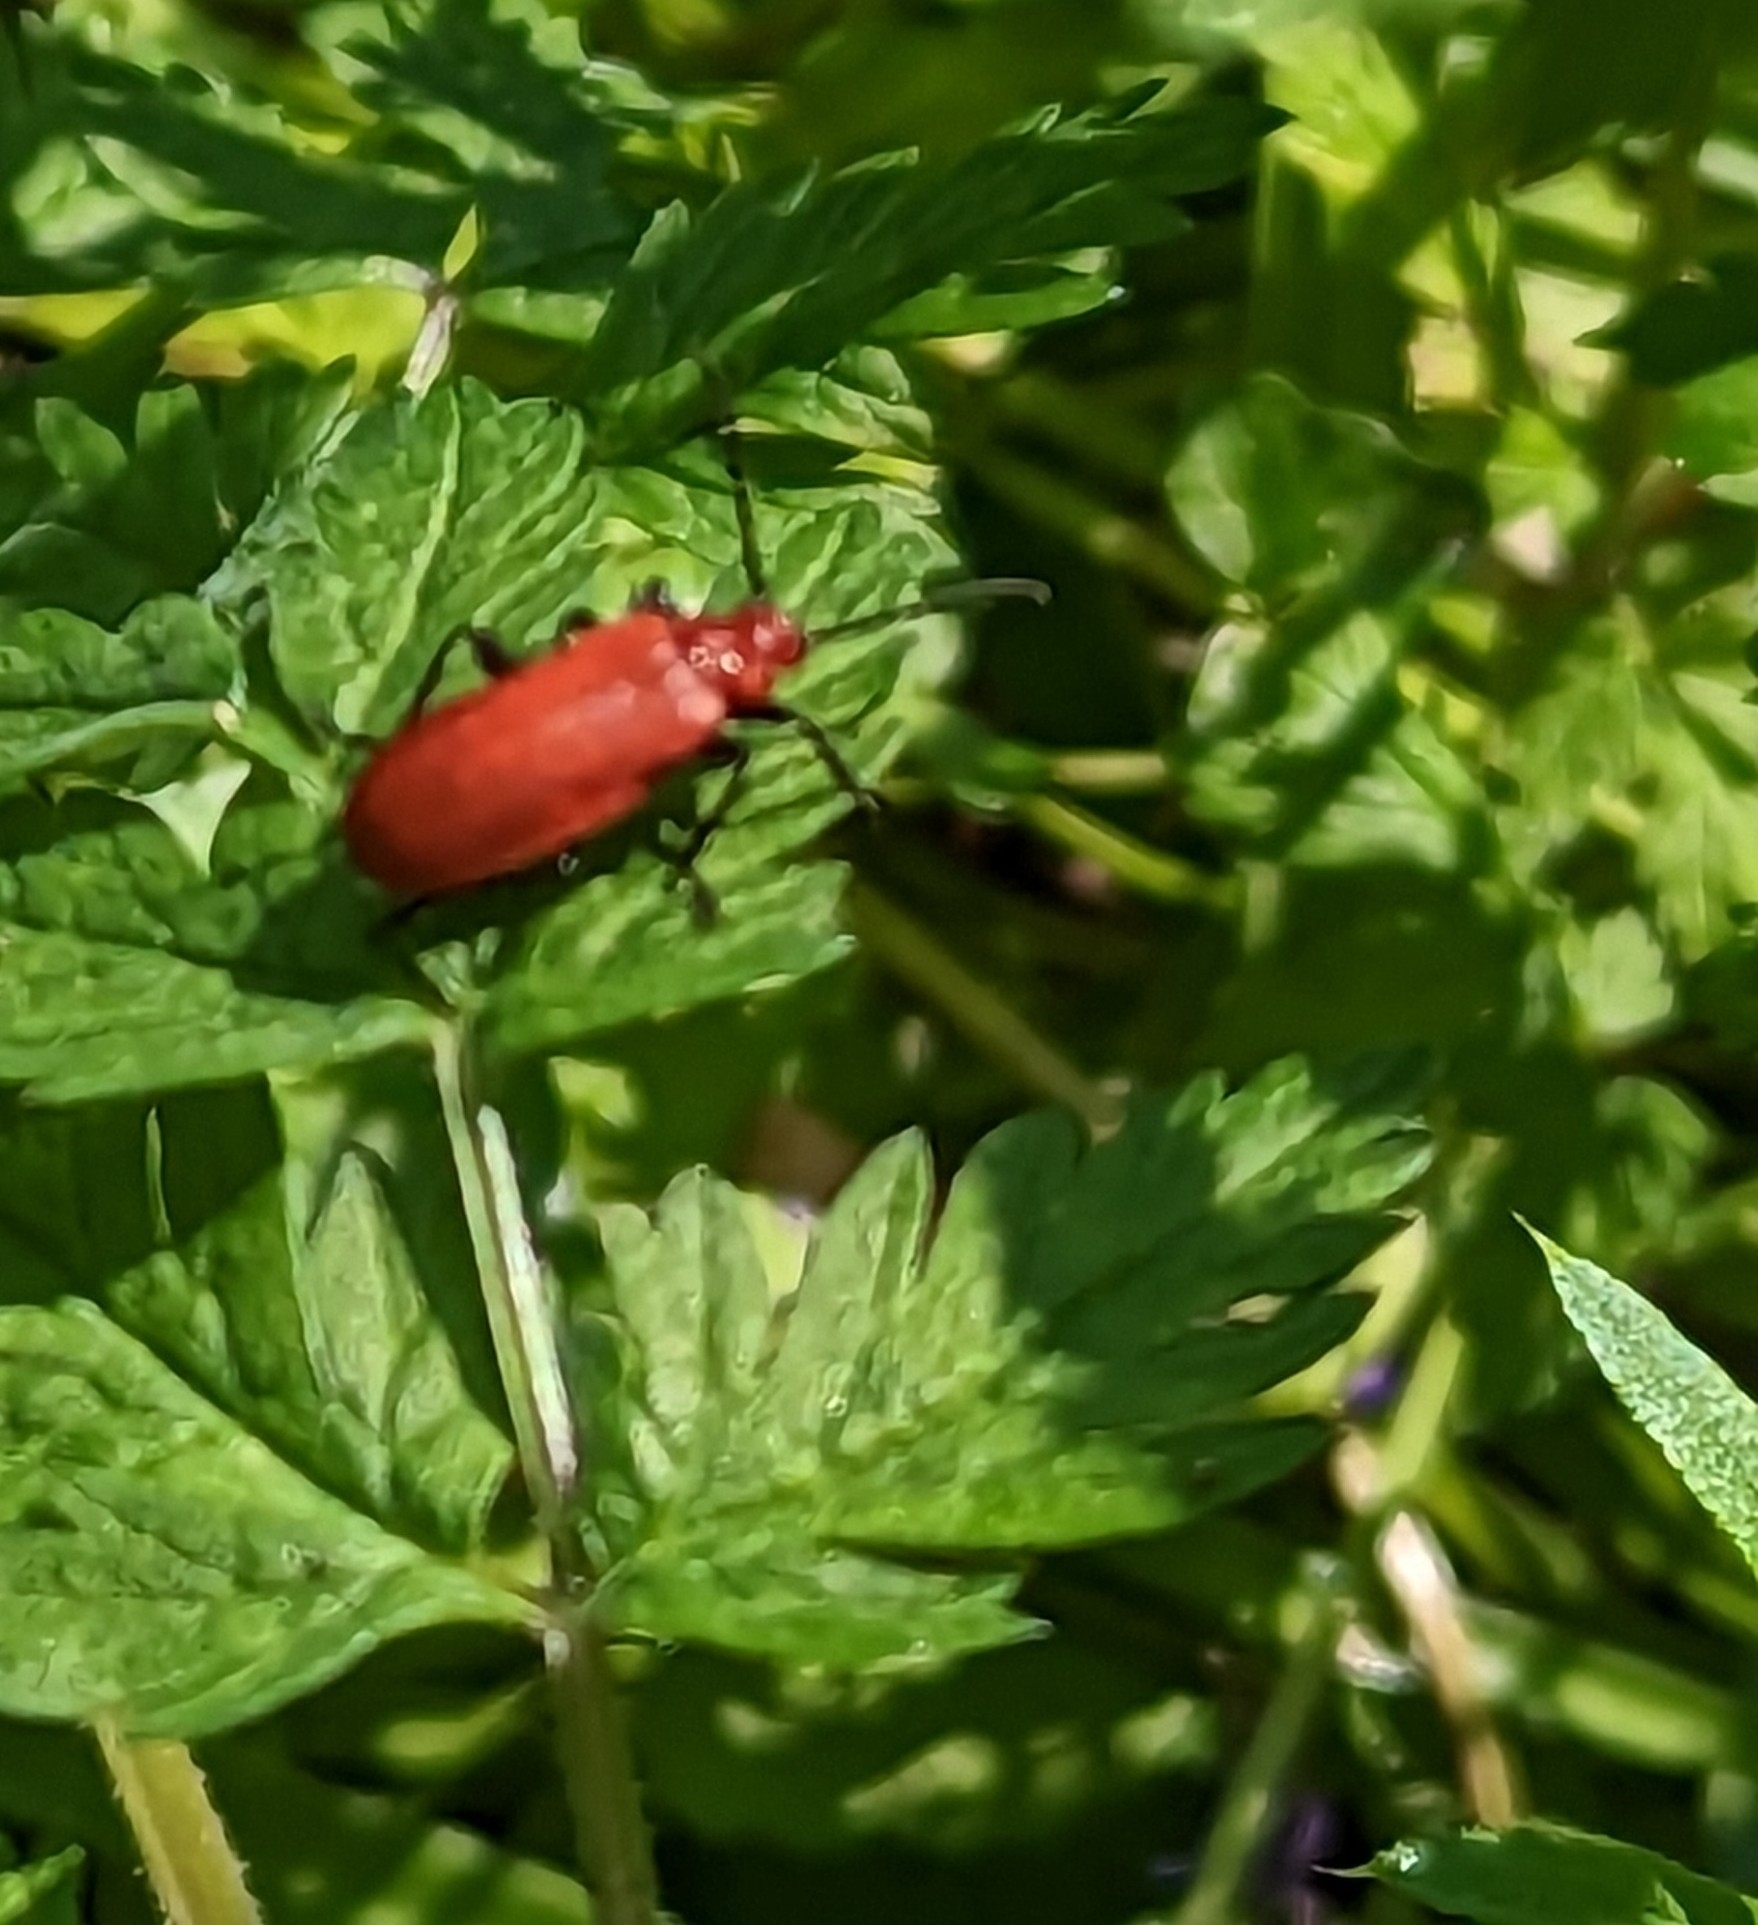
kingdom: Animalia
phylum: Arthropoda
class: Insecta
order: Coleoptera
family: Pyrochroidae
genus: Pyrochroa
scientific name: Pyrochroa serraticornis
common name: Red-headed cardinal beetle
